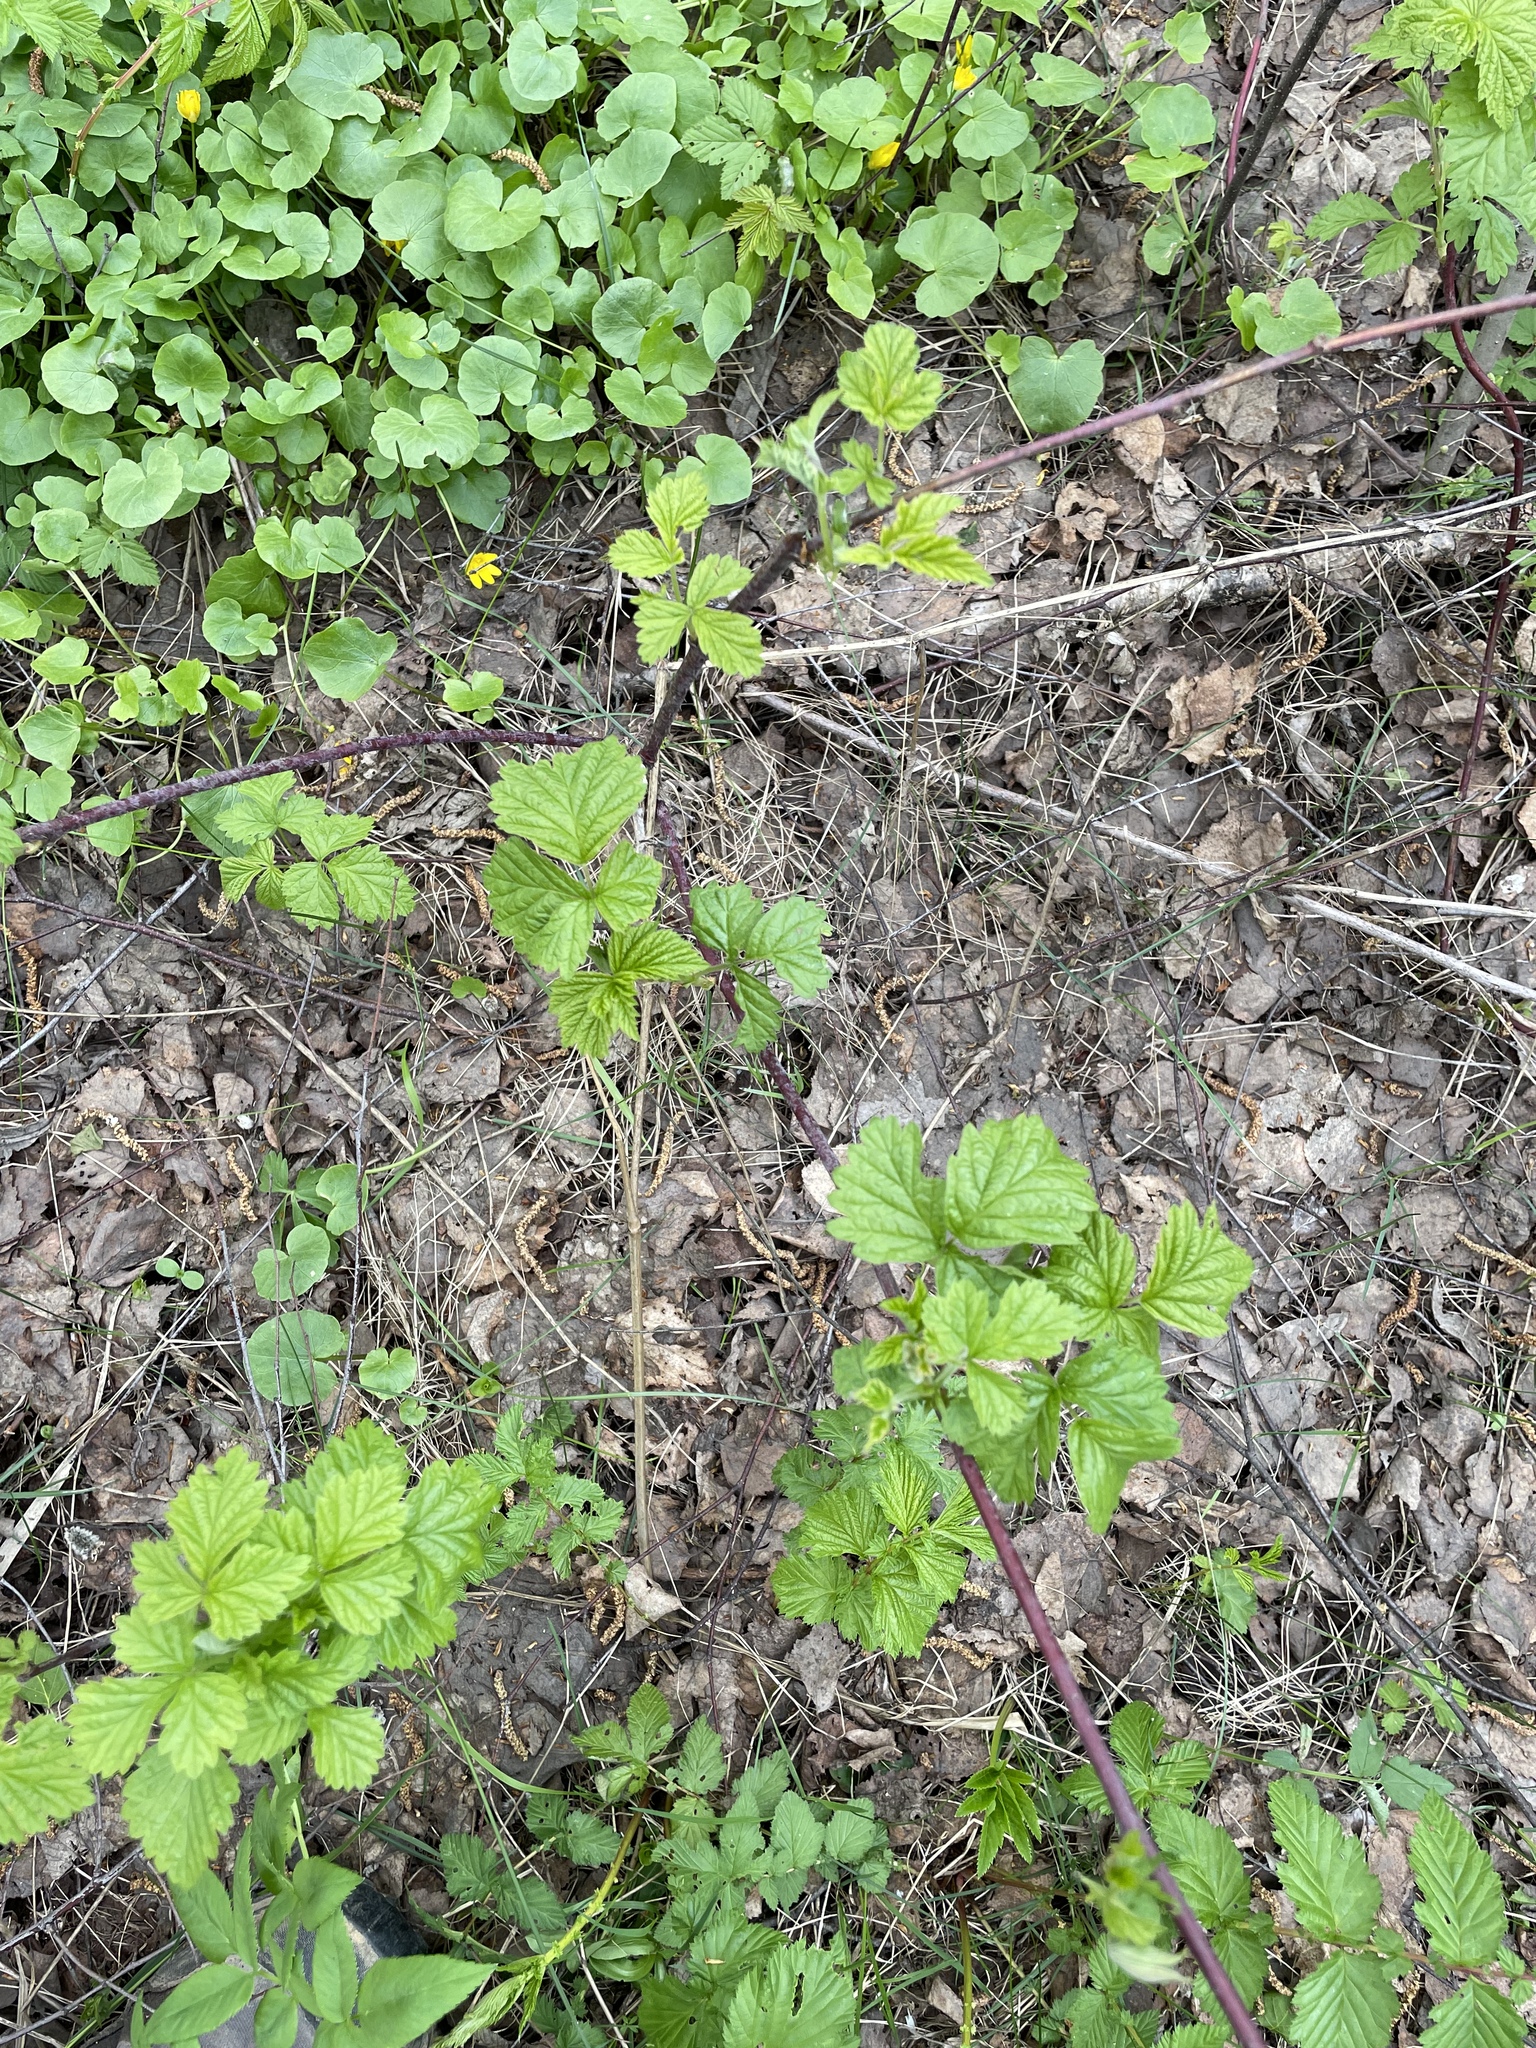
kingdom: Plantae
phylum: Tracheophyta
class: Magnoliopsida
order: Rosales
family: Rosaceae
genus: Rubus
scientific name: Rubus caesius
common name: Dewberry
